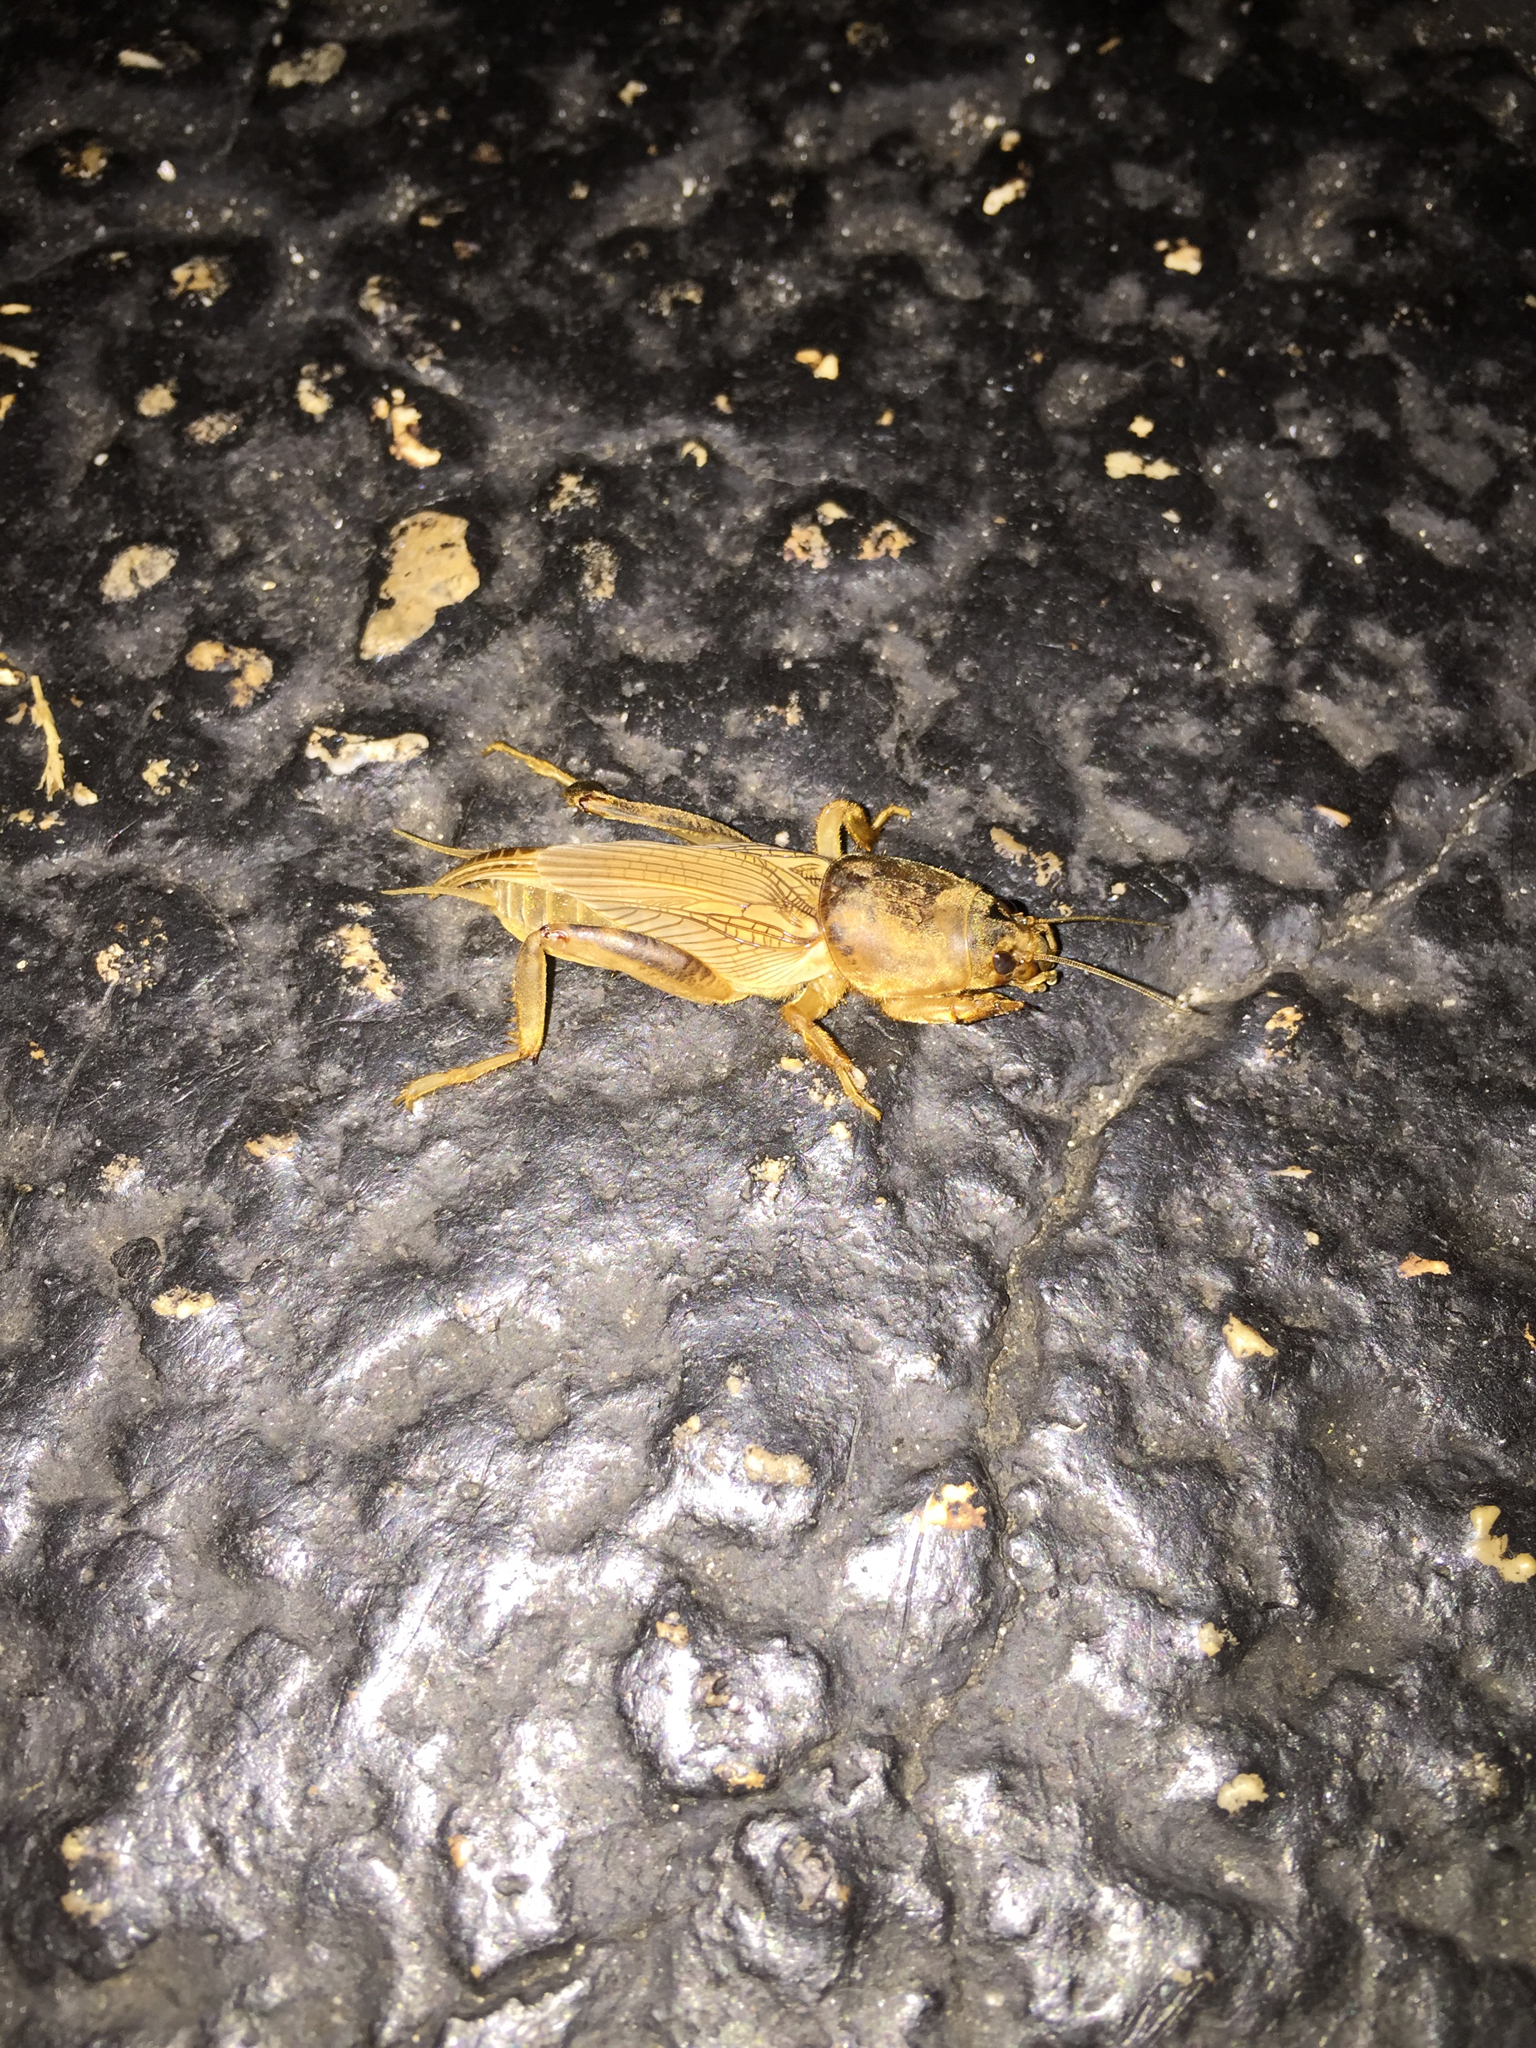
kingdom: Animalia
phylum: Arthropoda
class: Insecta
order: Orthoptera
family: Gryllotalpidae
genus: Neoscapteriscus
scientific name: Neoscapteriscus vicinus
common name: Tawny mole cricket
